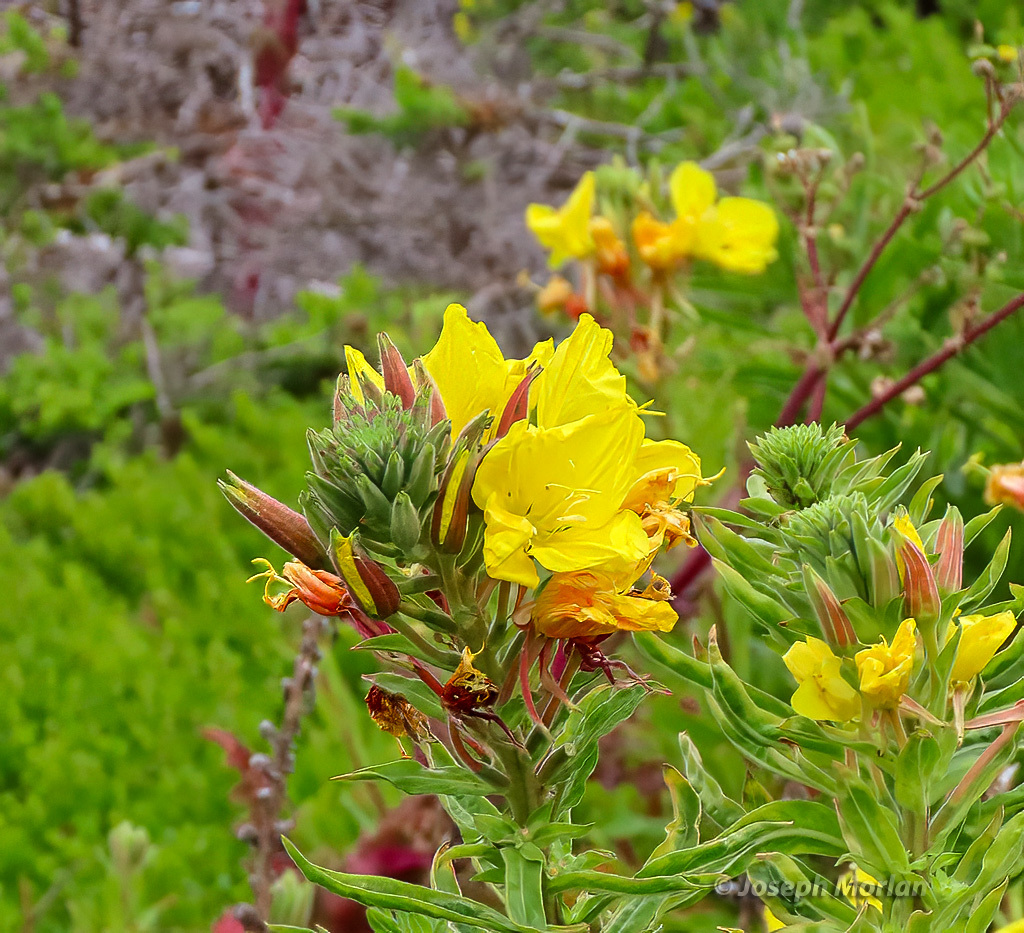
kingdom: Plantae
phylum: Tracheophyta
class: Magnoliopsida
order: Myrtales
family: Onagraceae
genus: Oenothera
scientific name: Oenothera elata
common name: Hooker's evening-primrose
